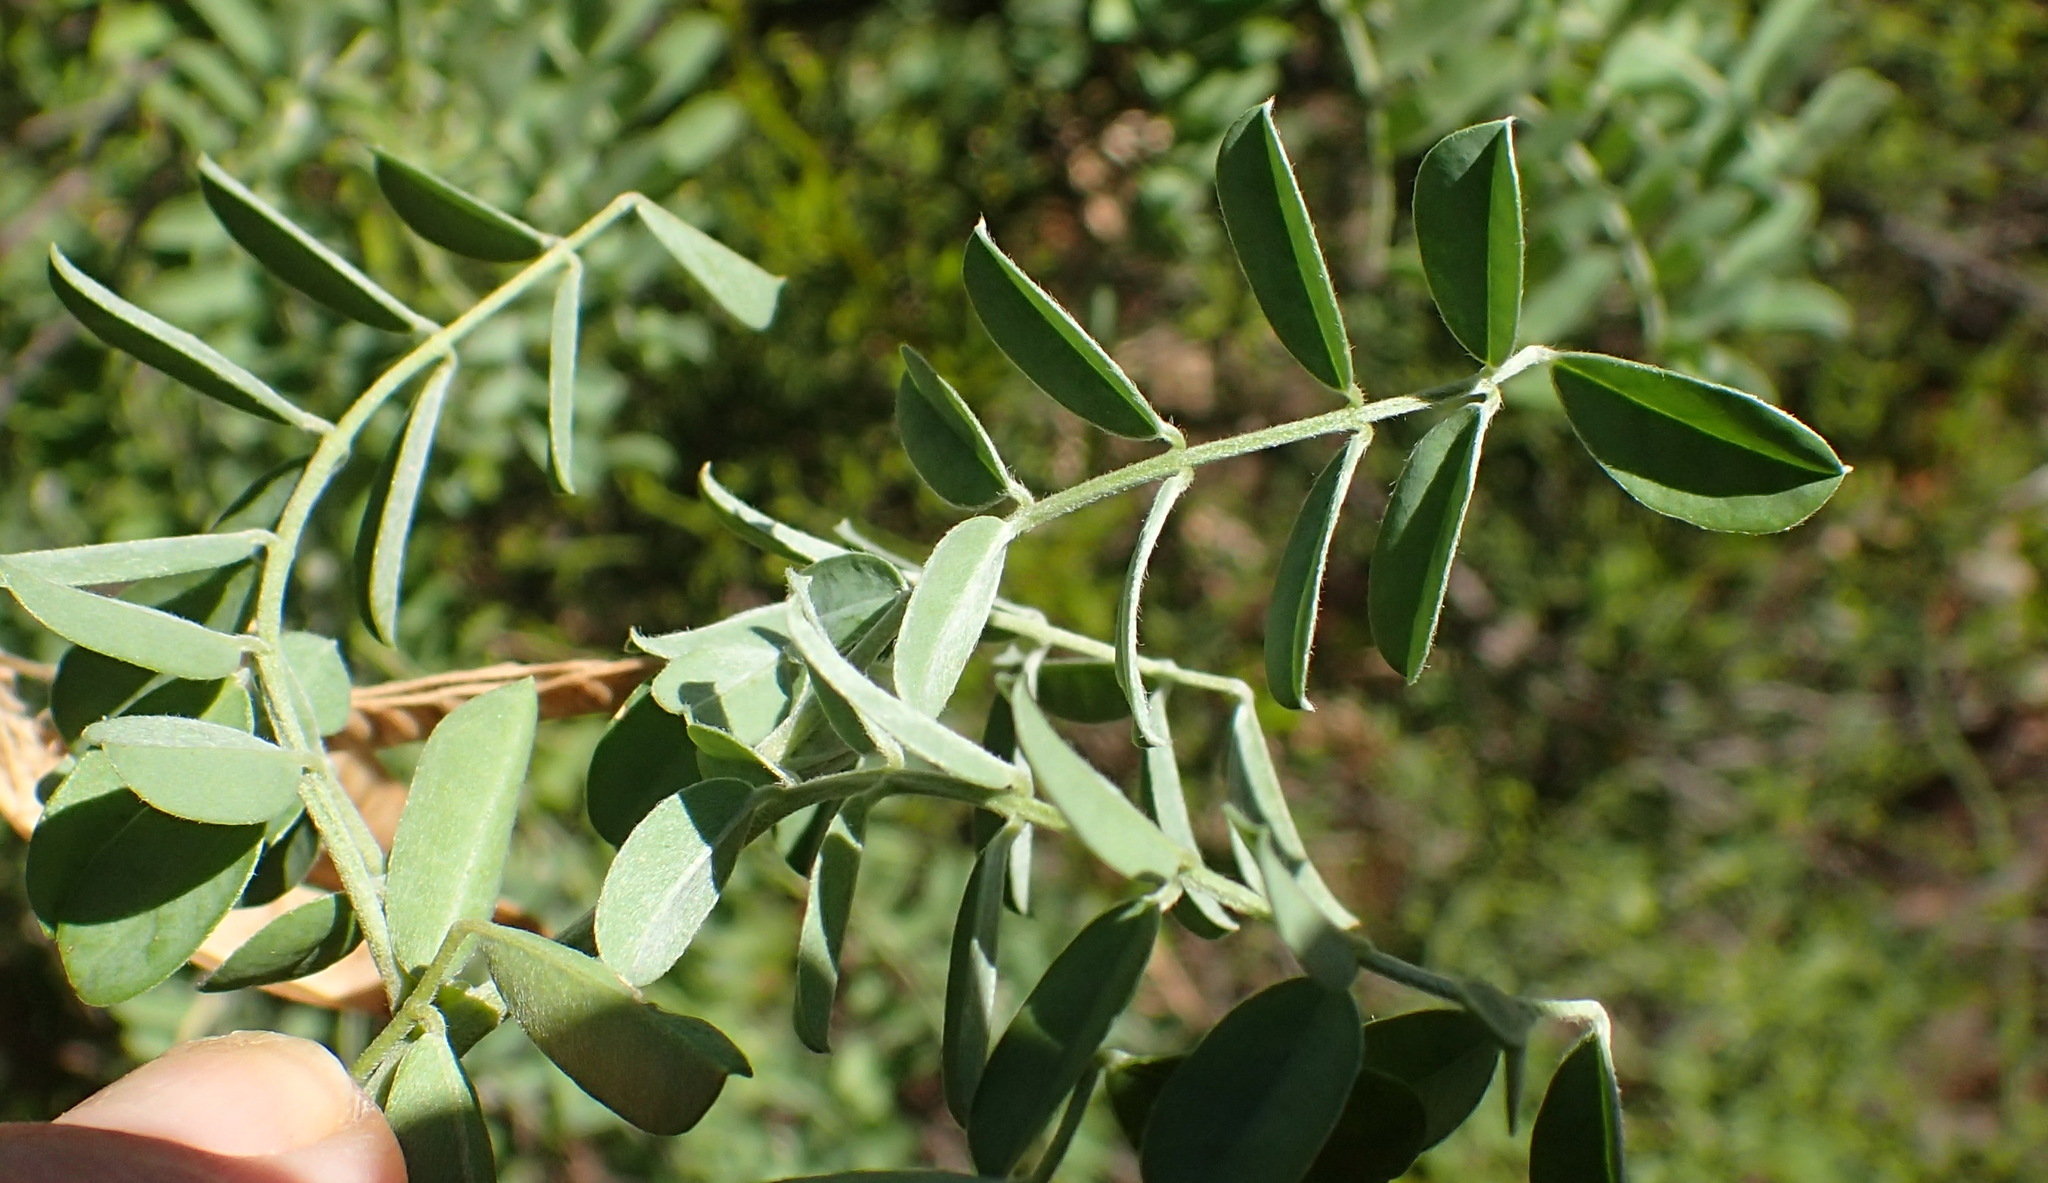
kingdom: Plantae
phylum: Tracheophyta
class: Magnoliopsida
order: Fabales
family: Fabaceae
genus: Calpurnia
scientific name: Calpurnia intrusa
